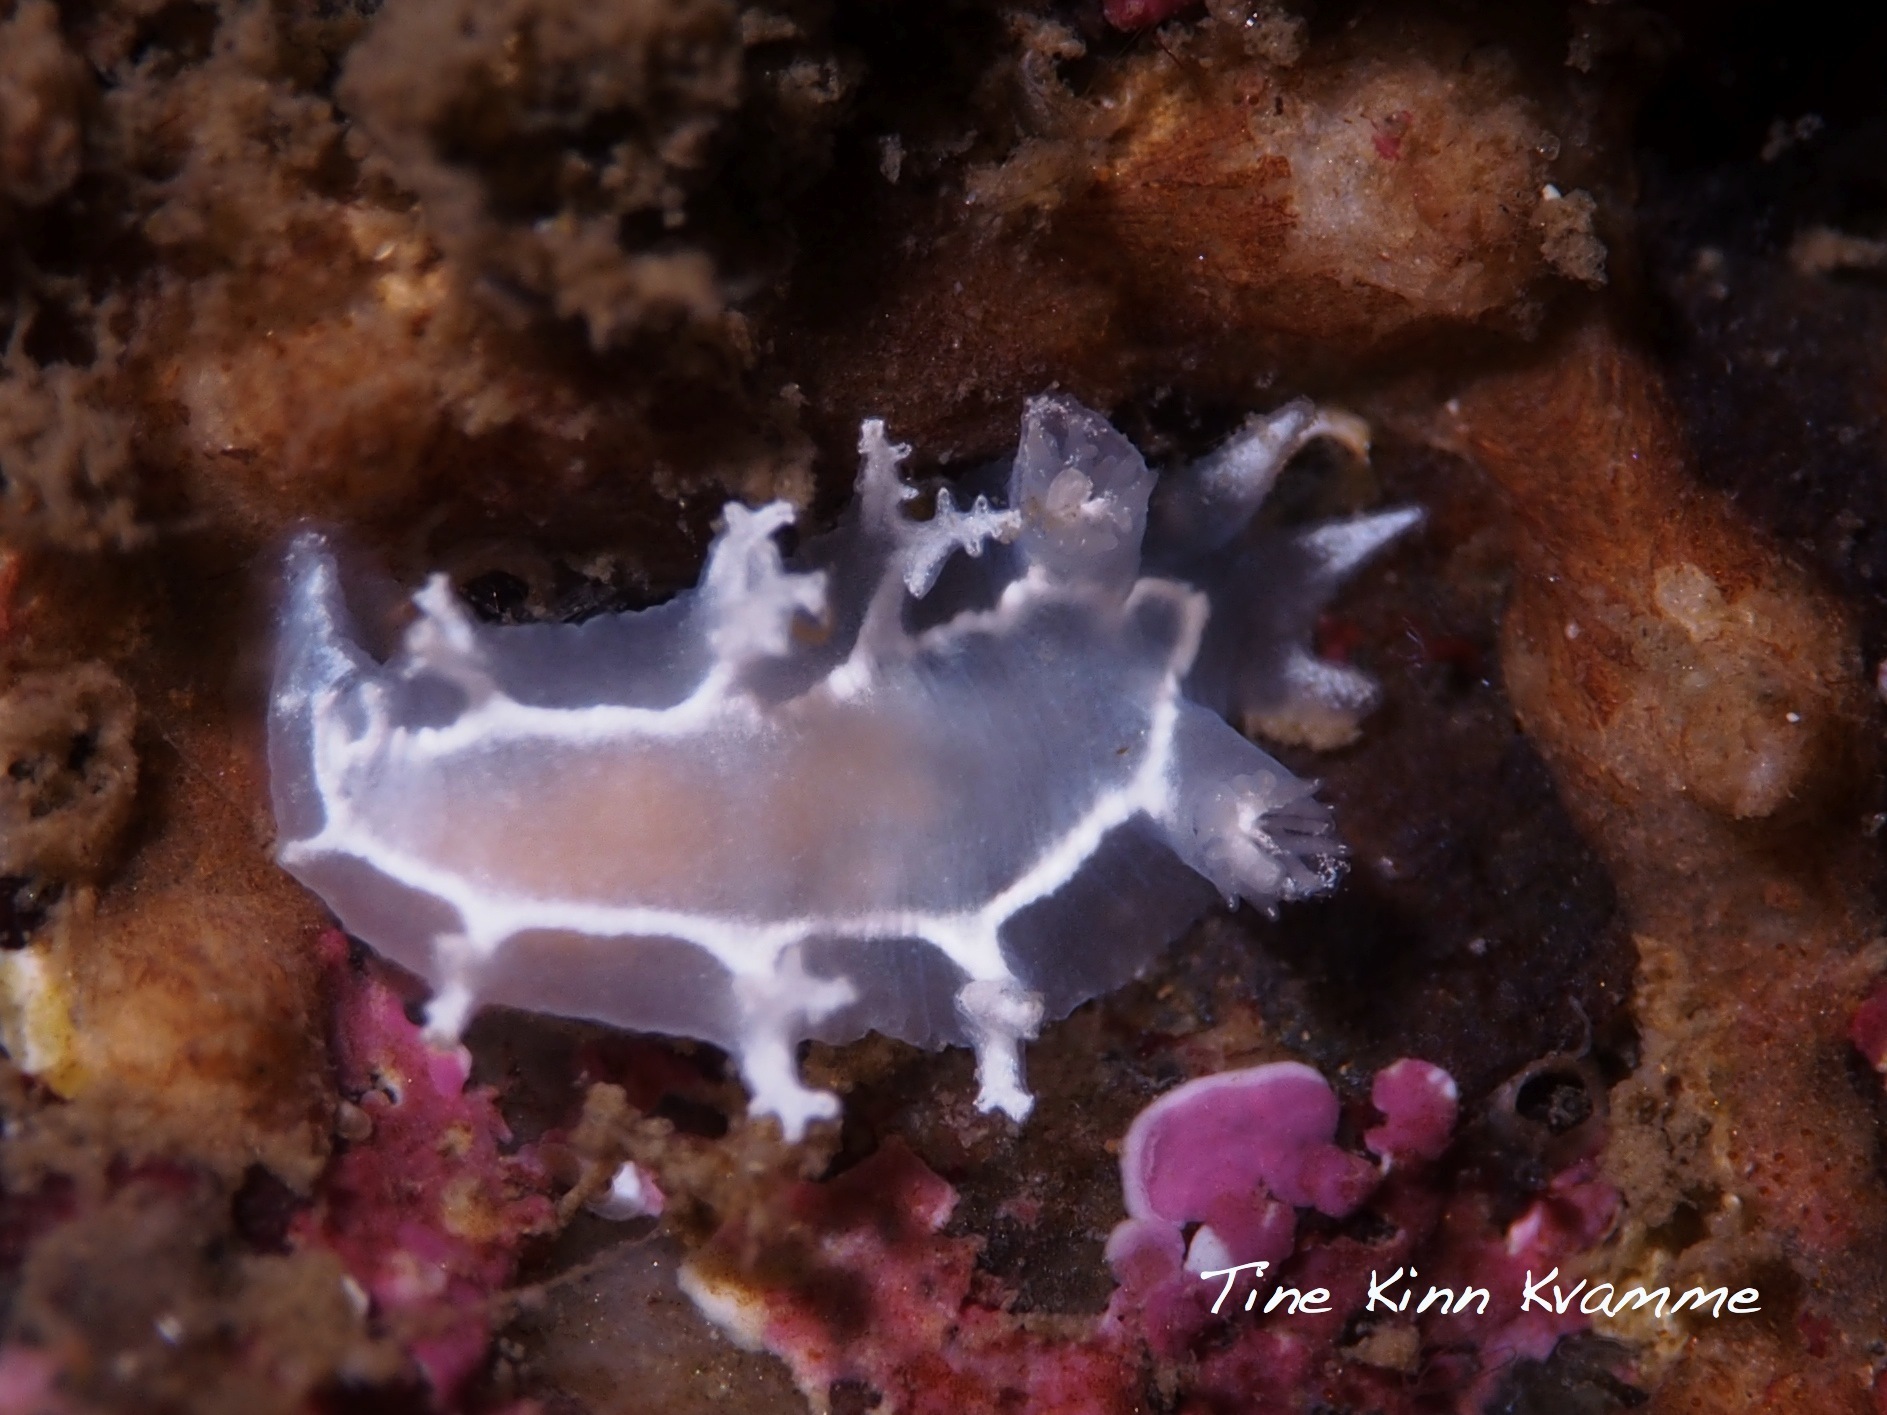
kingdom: Animalia
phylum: Mollusca
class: Gastropoda
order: Nudibranchia
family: Tritoniidae
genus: Duvaucelia
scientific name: Duvaucelia lineata
